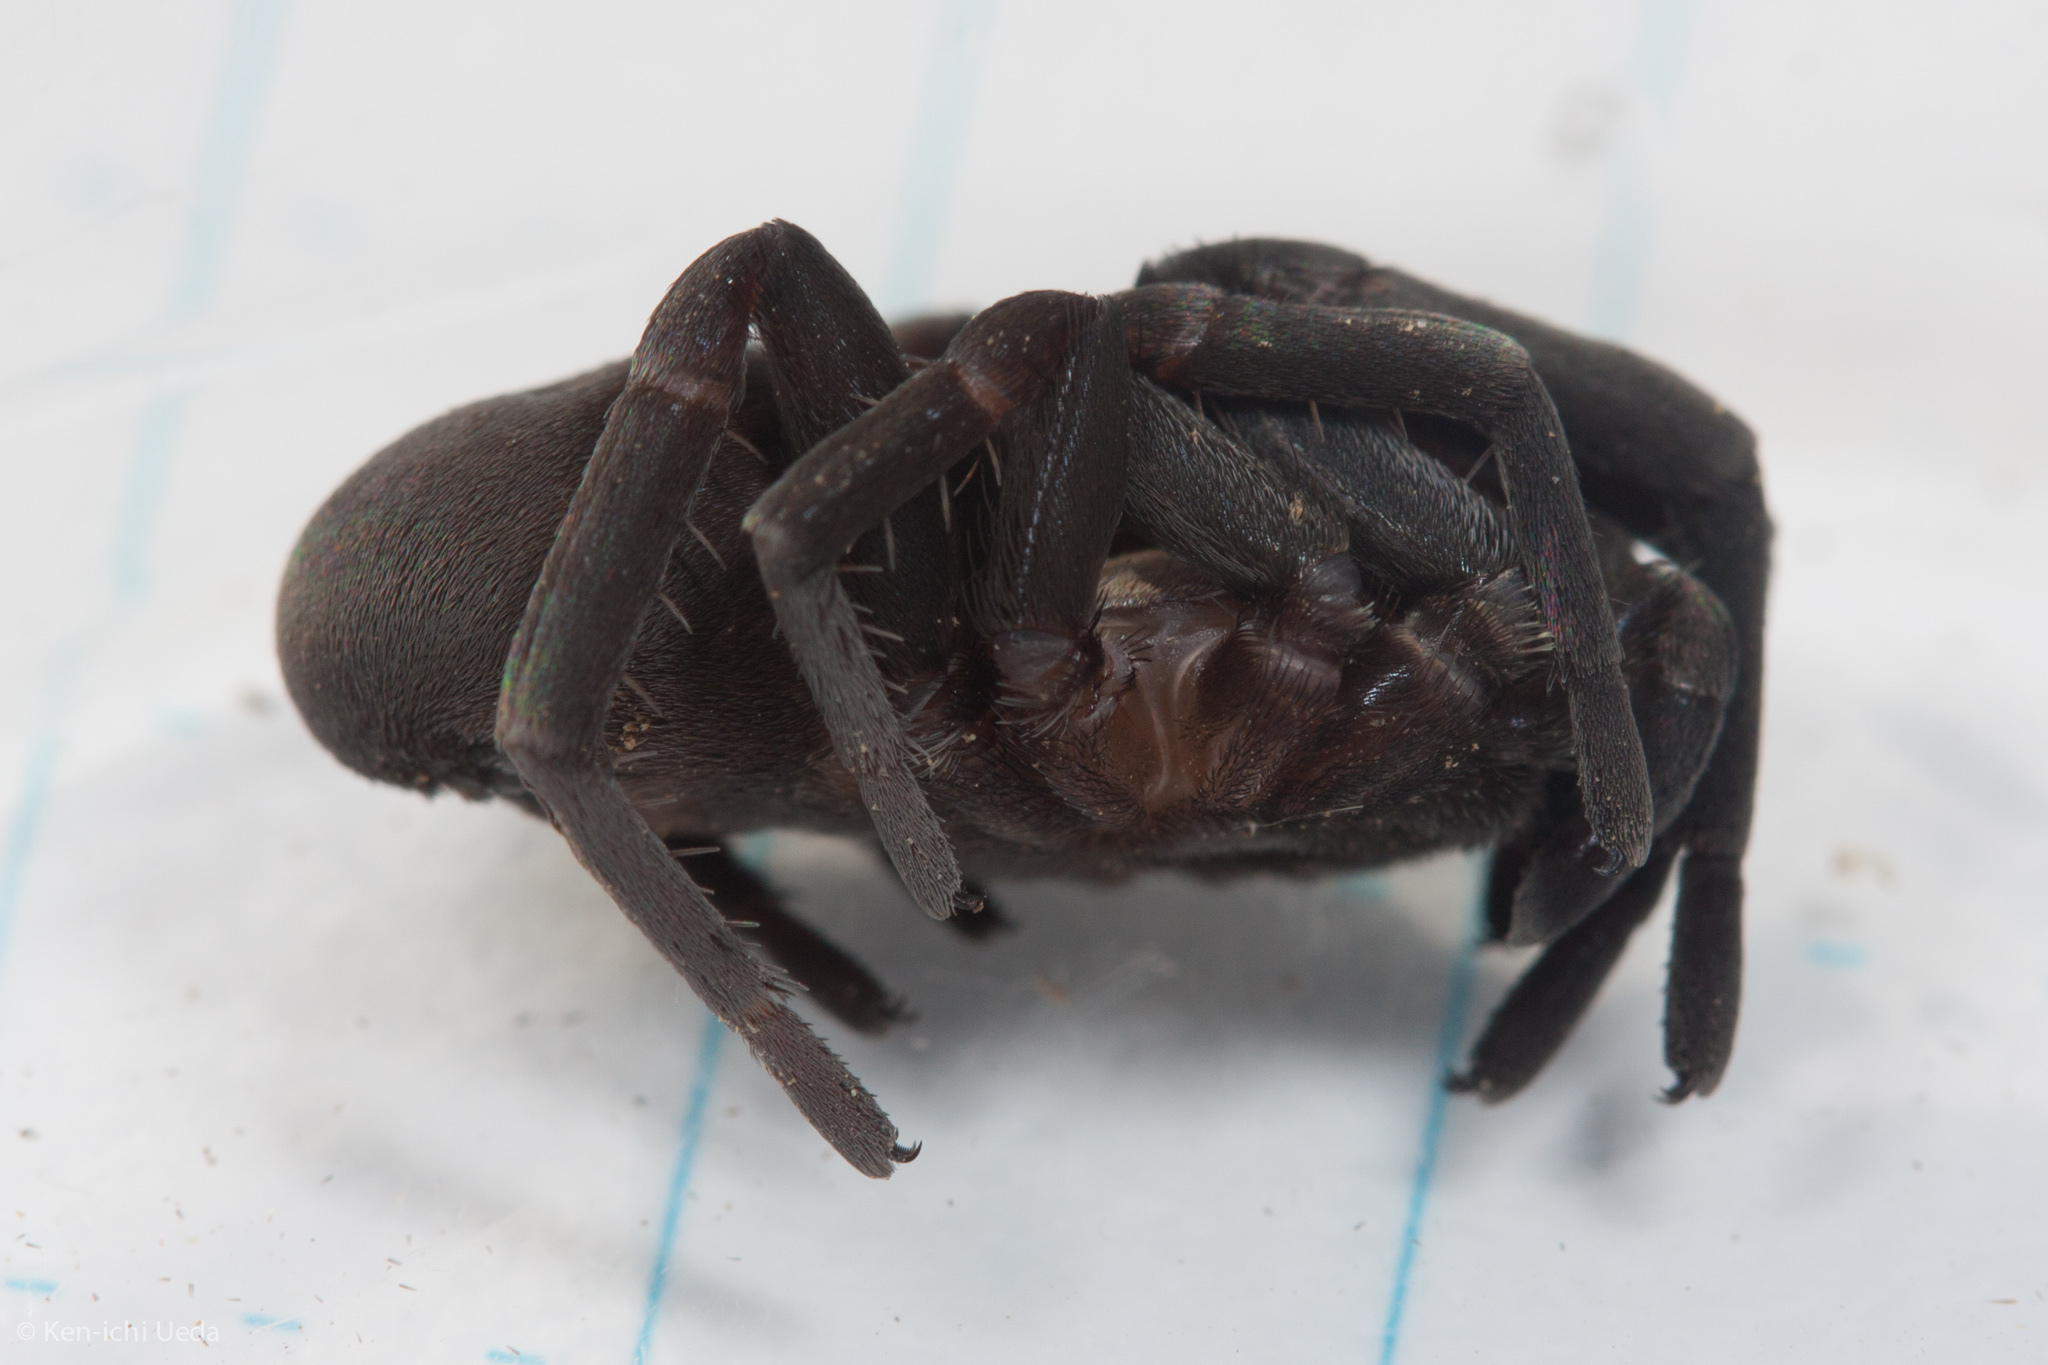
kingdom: Animalia
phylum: Arthropoda
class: Arachnida
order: Araneae
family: Filistatidae
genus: Kukulcania
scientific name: Kukulcania
